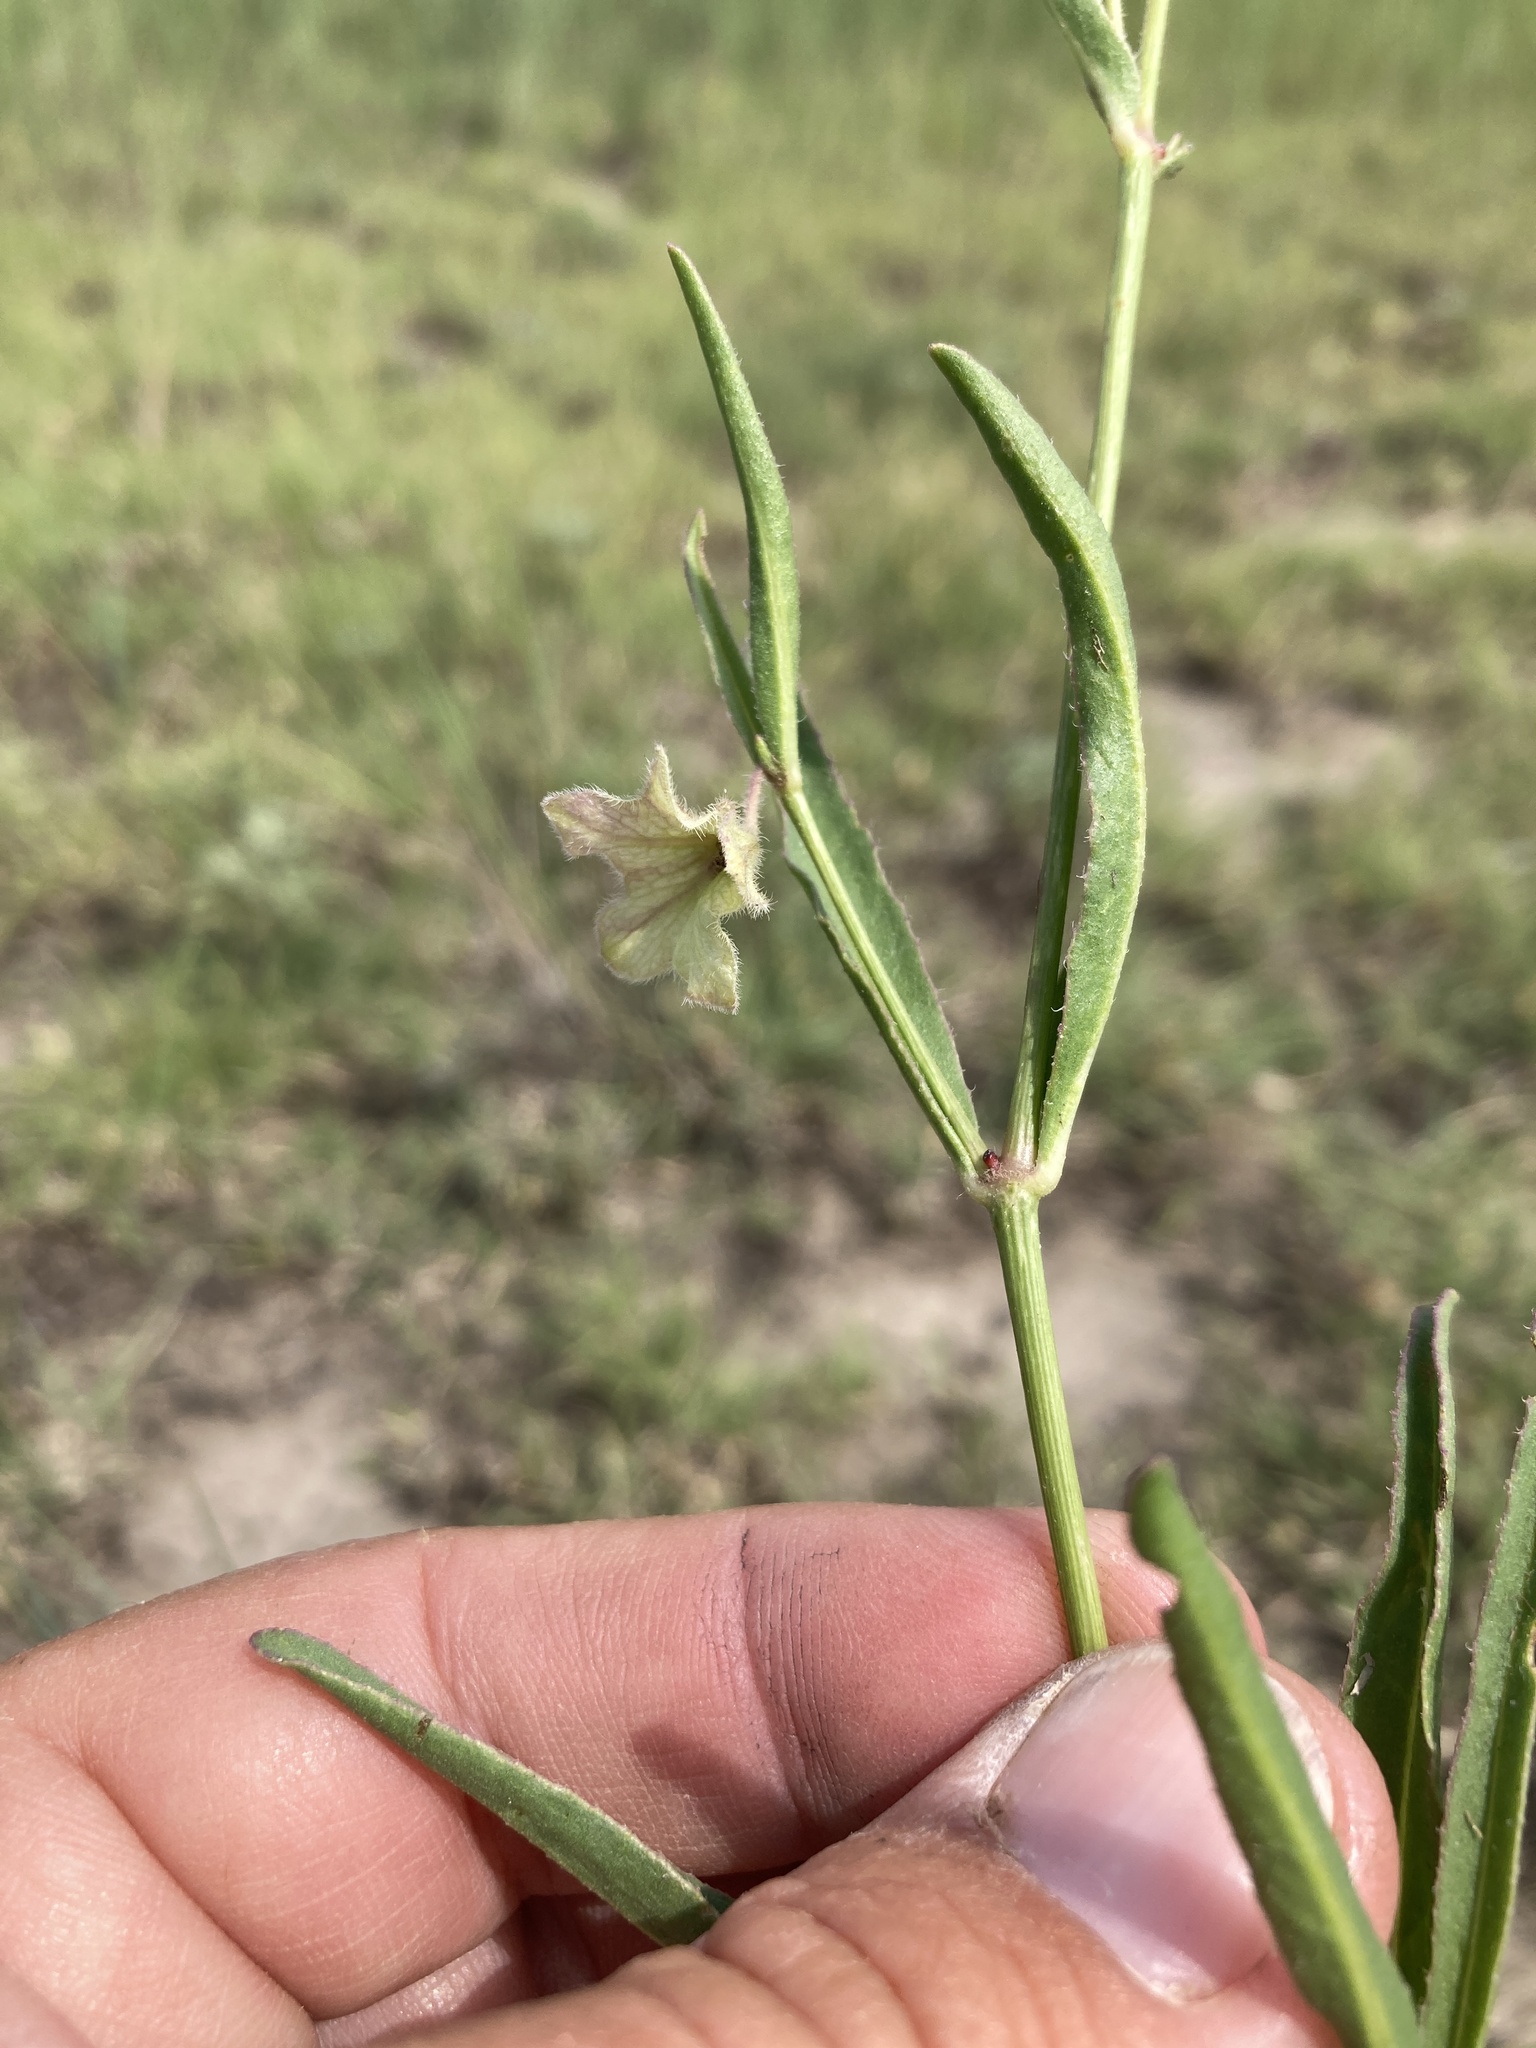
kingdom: Plantae
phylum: Tracheophyta
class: Magnoliopsida
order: Caryophyllales
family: Nyctaginaceae
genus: Mirabilis
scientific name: Mirabilis linearis
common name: Linear-leaved four-o'clock
